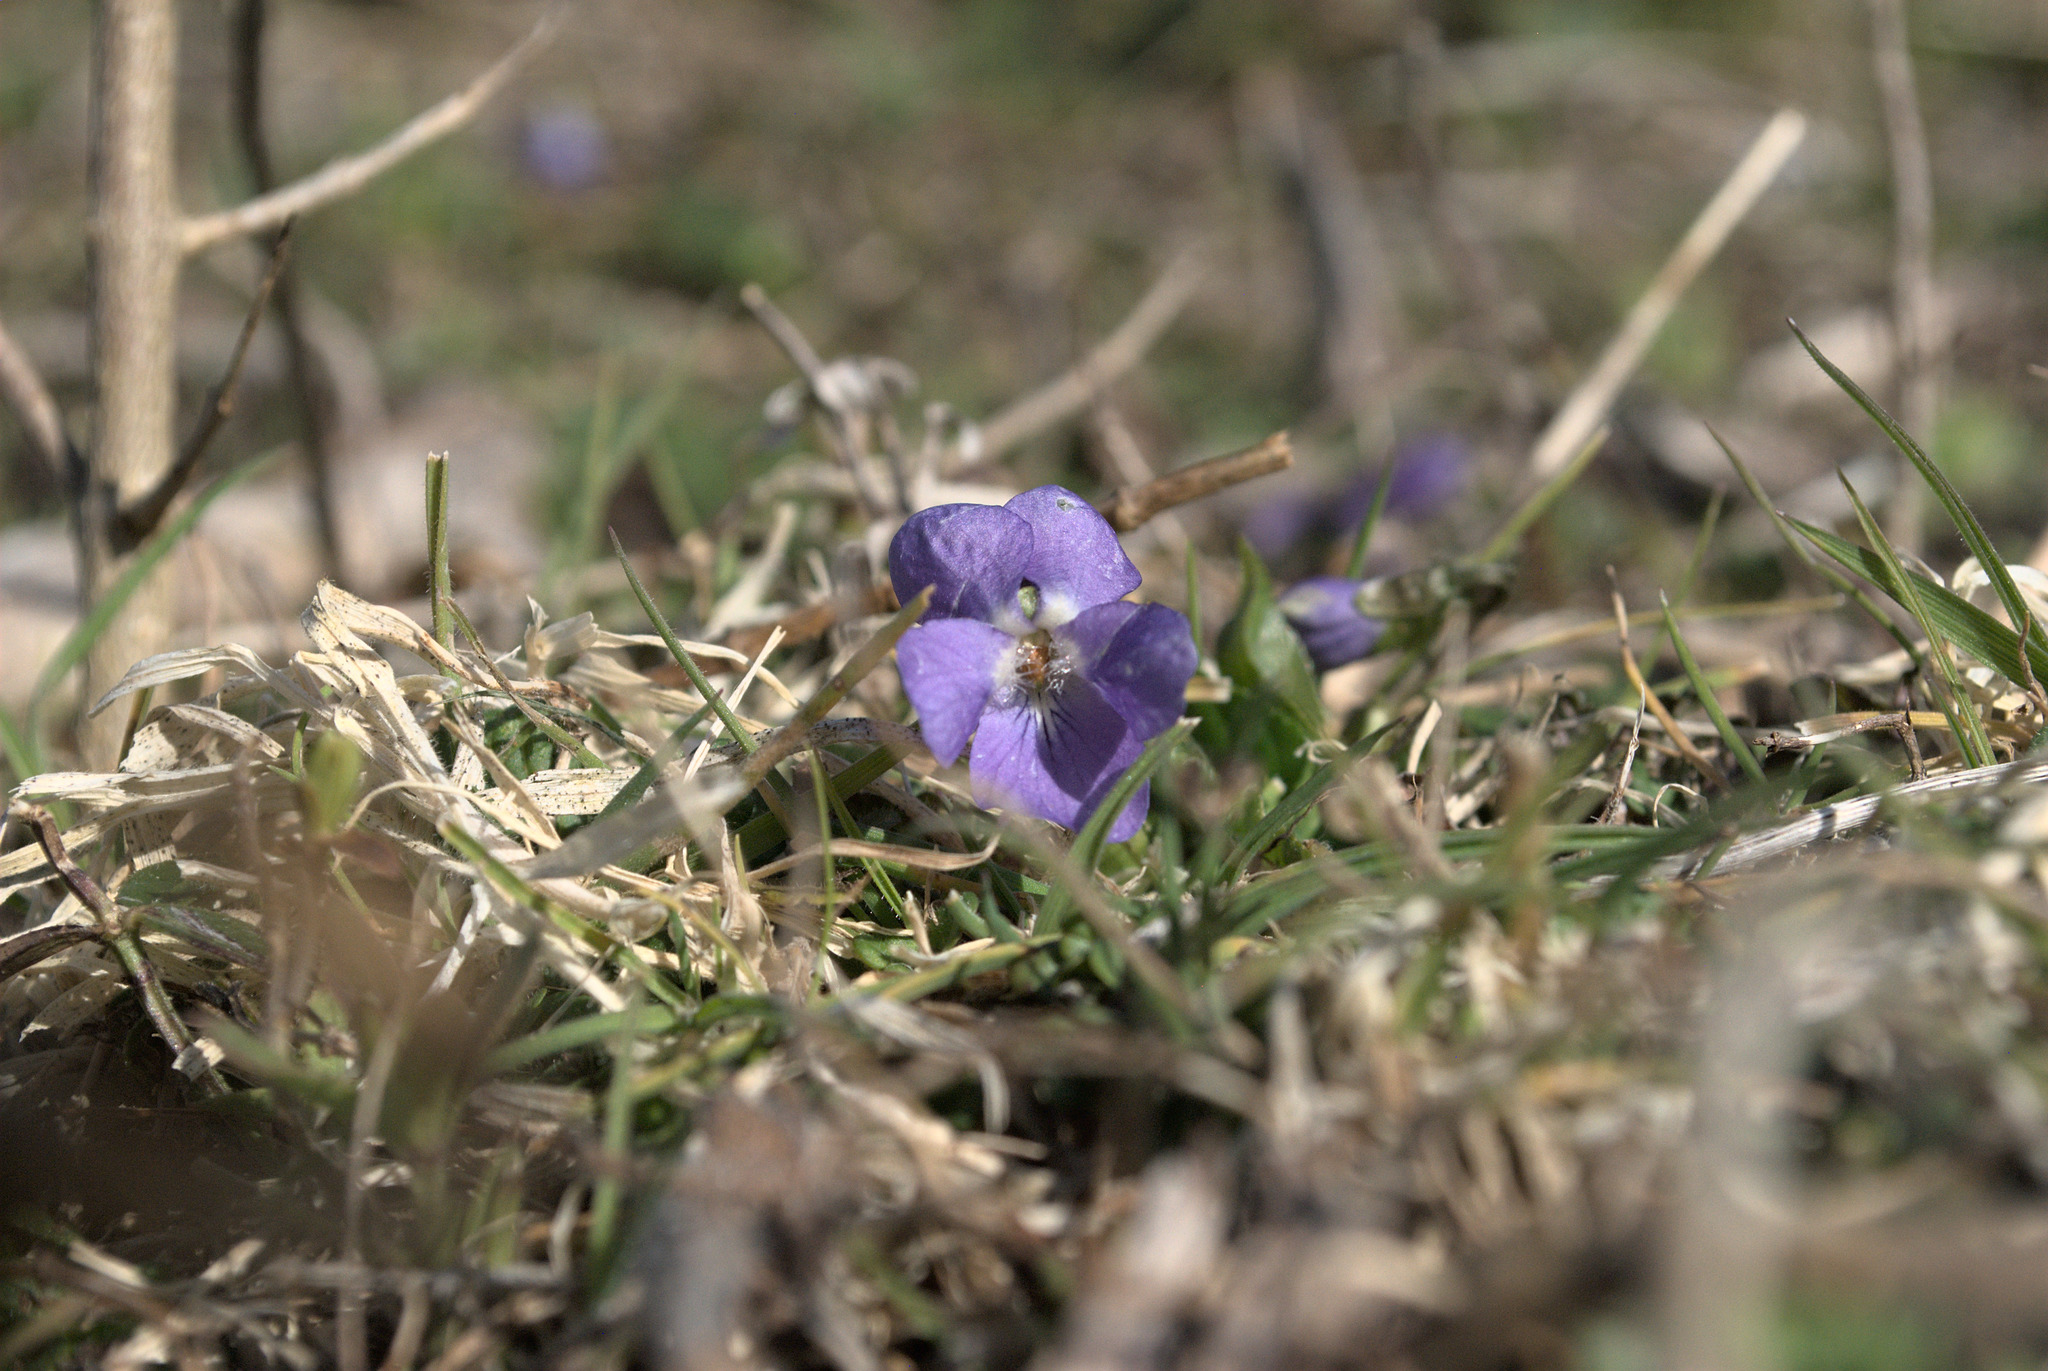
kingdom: Plantae
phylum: Tracheophyta
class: Magnoliopsida
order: Malpighiales
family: Violaceae
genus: Viola
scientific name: Viola hirta
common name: Hairy violet
